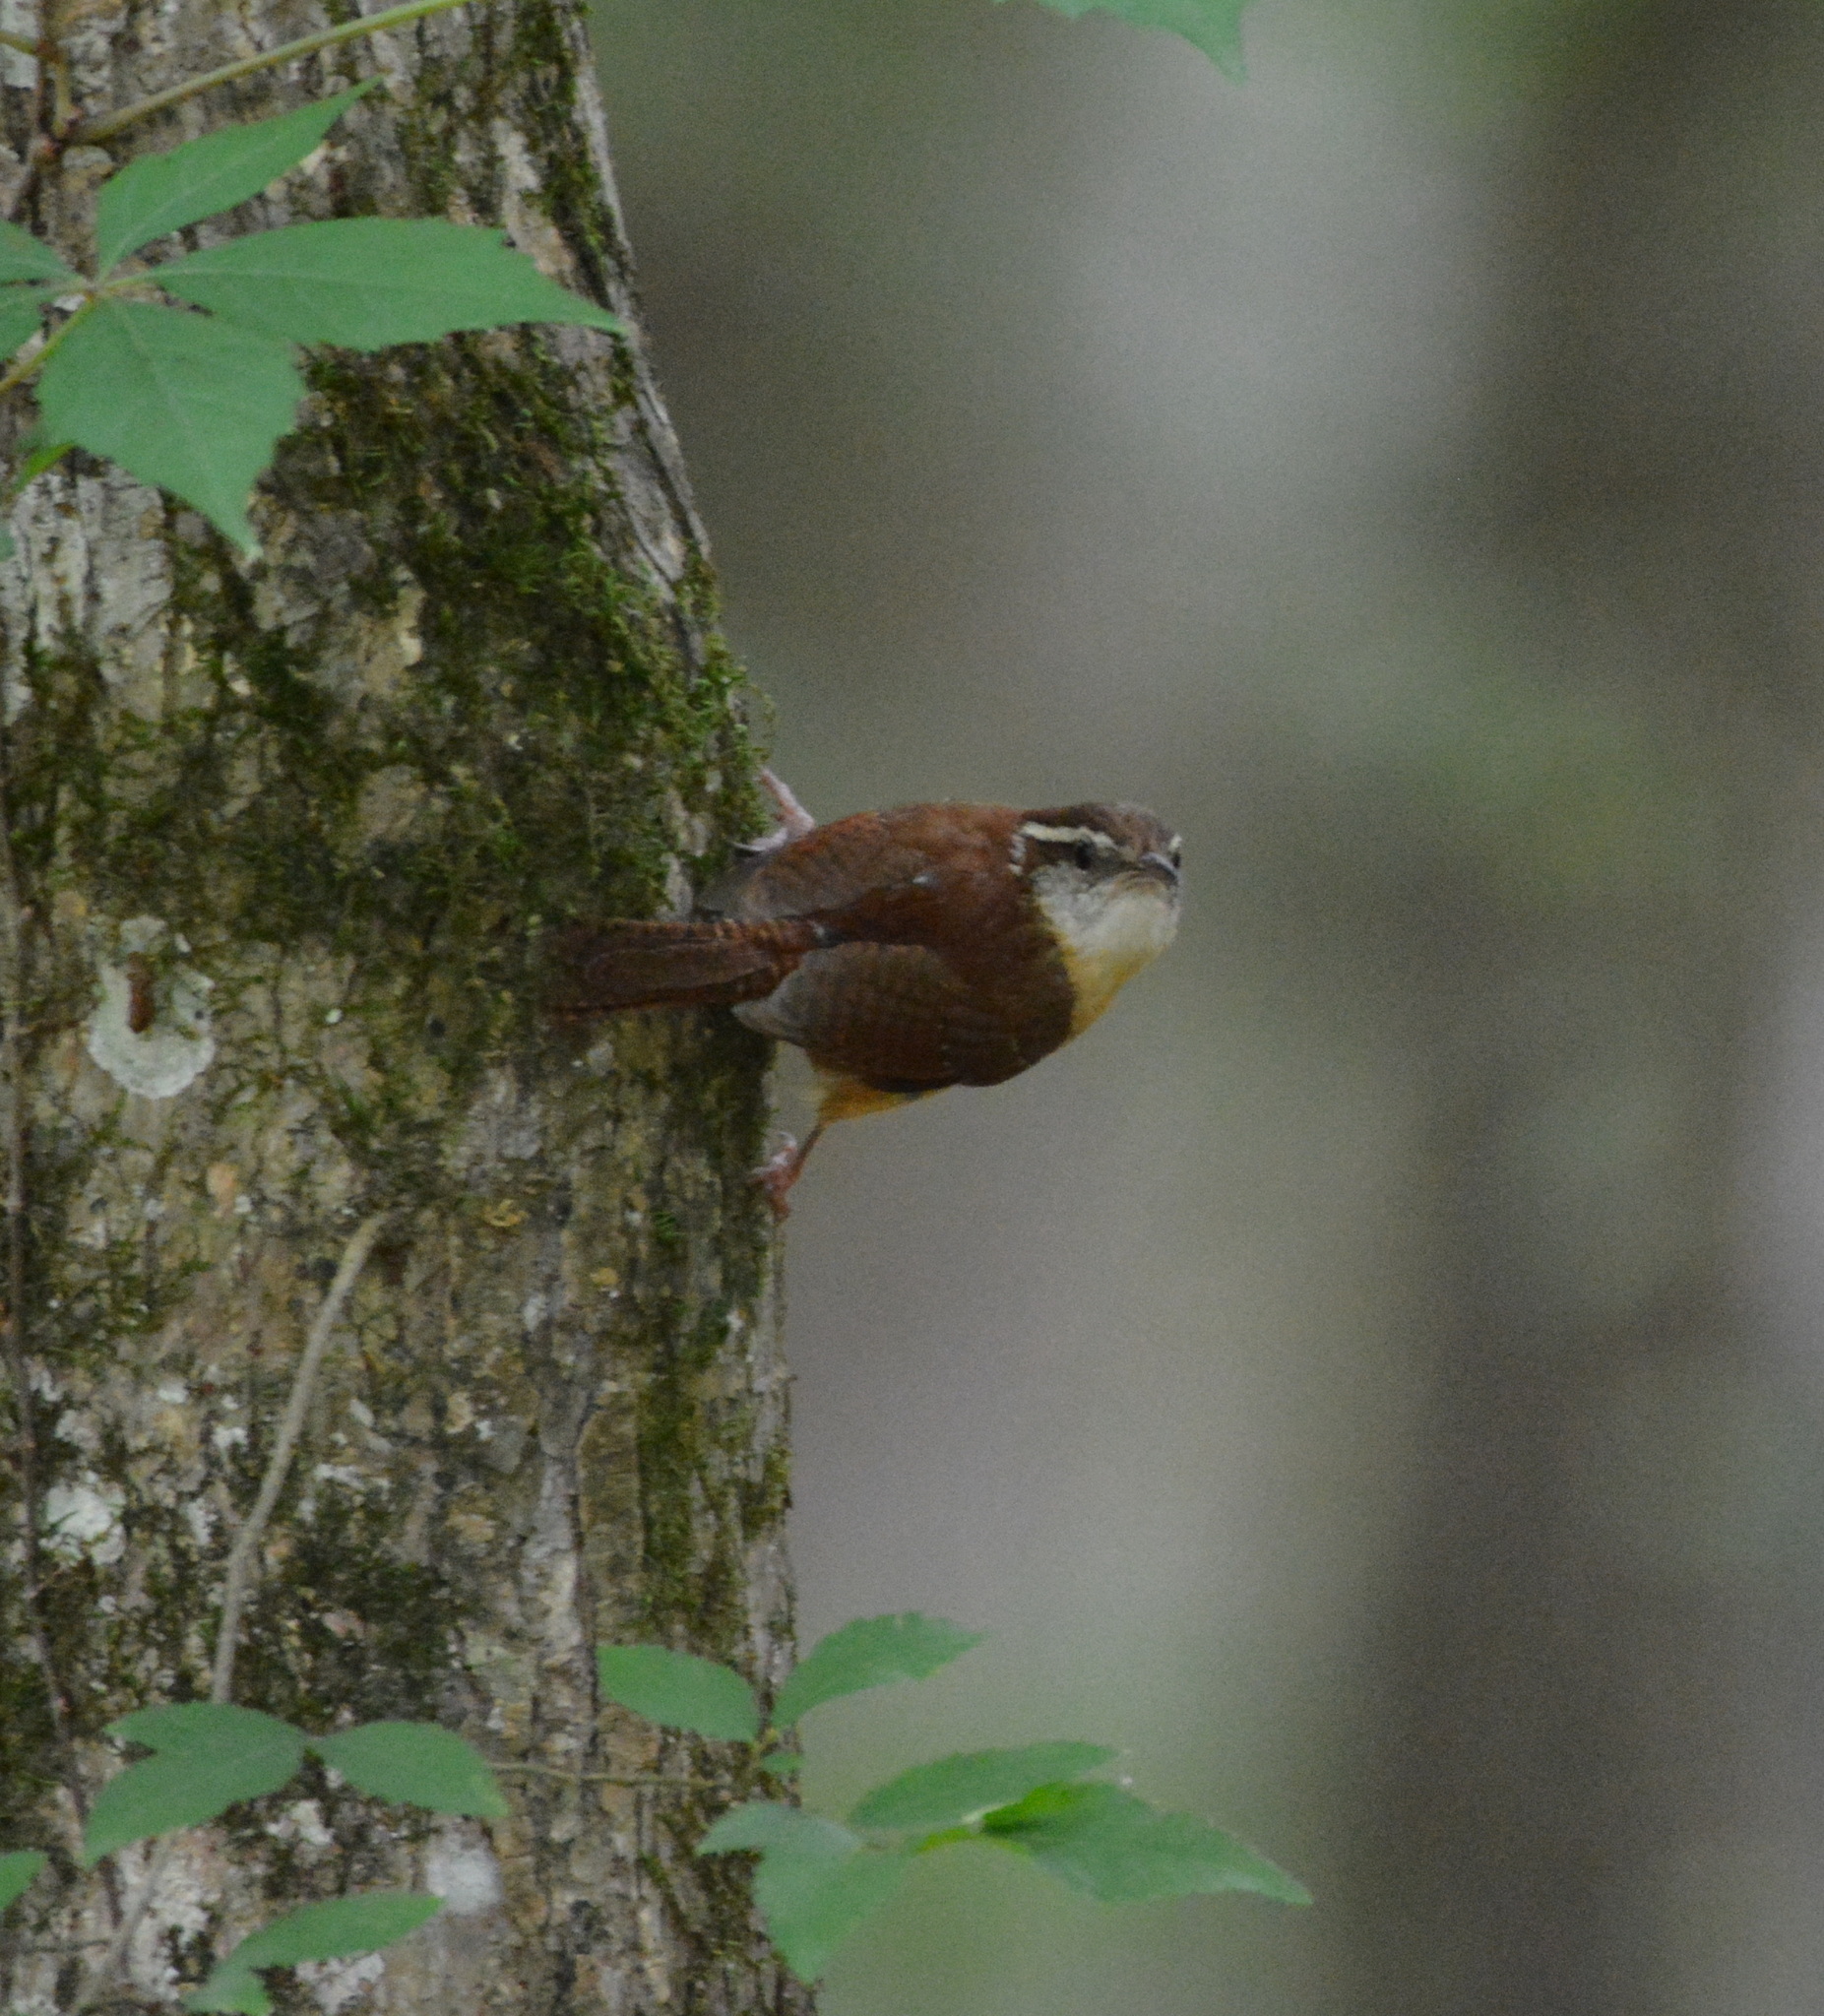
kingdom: Animalia
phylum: Chordata
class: Aves
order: Passeriformes
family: Troglodytidae
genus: Thryothorus
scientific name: Thryothorus ludovicianus
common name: Carolina wren
